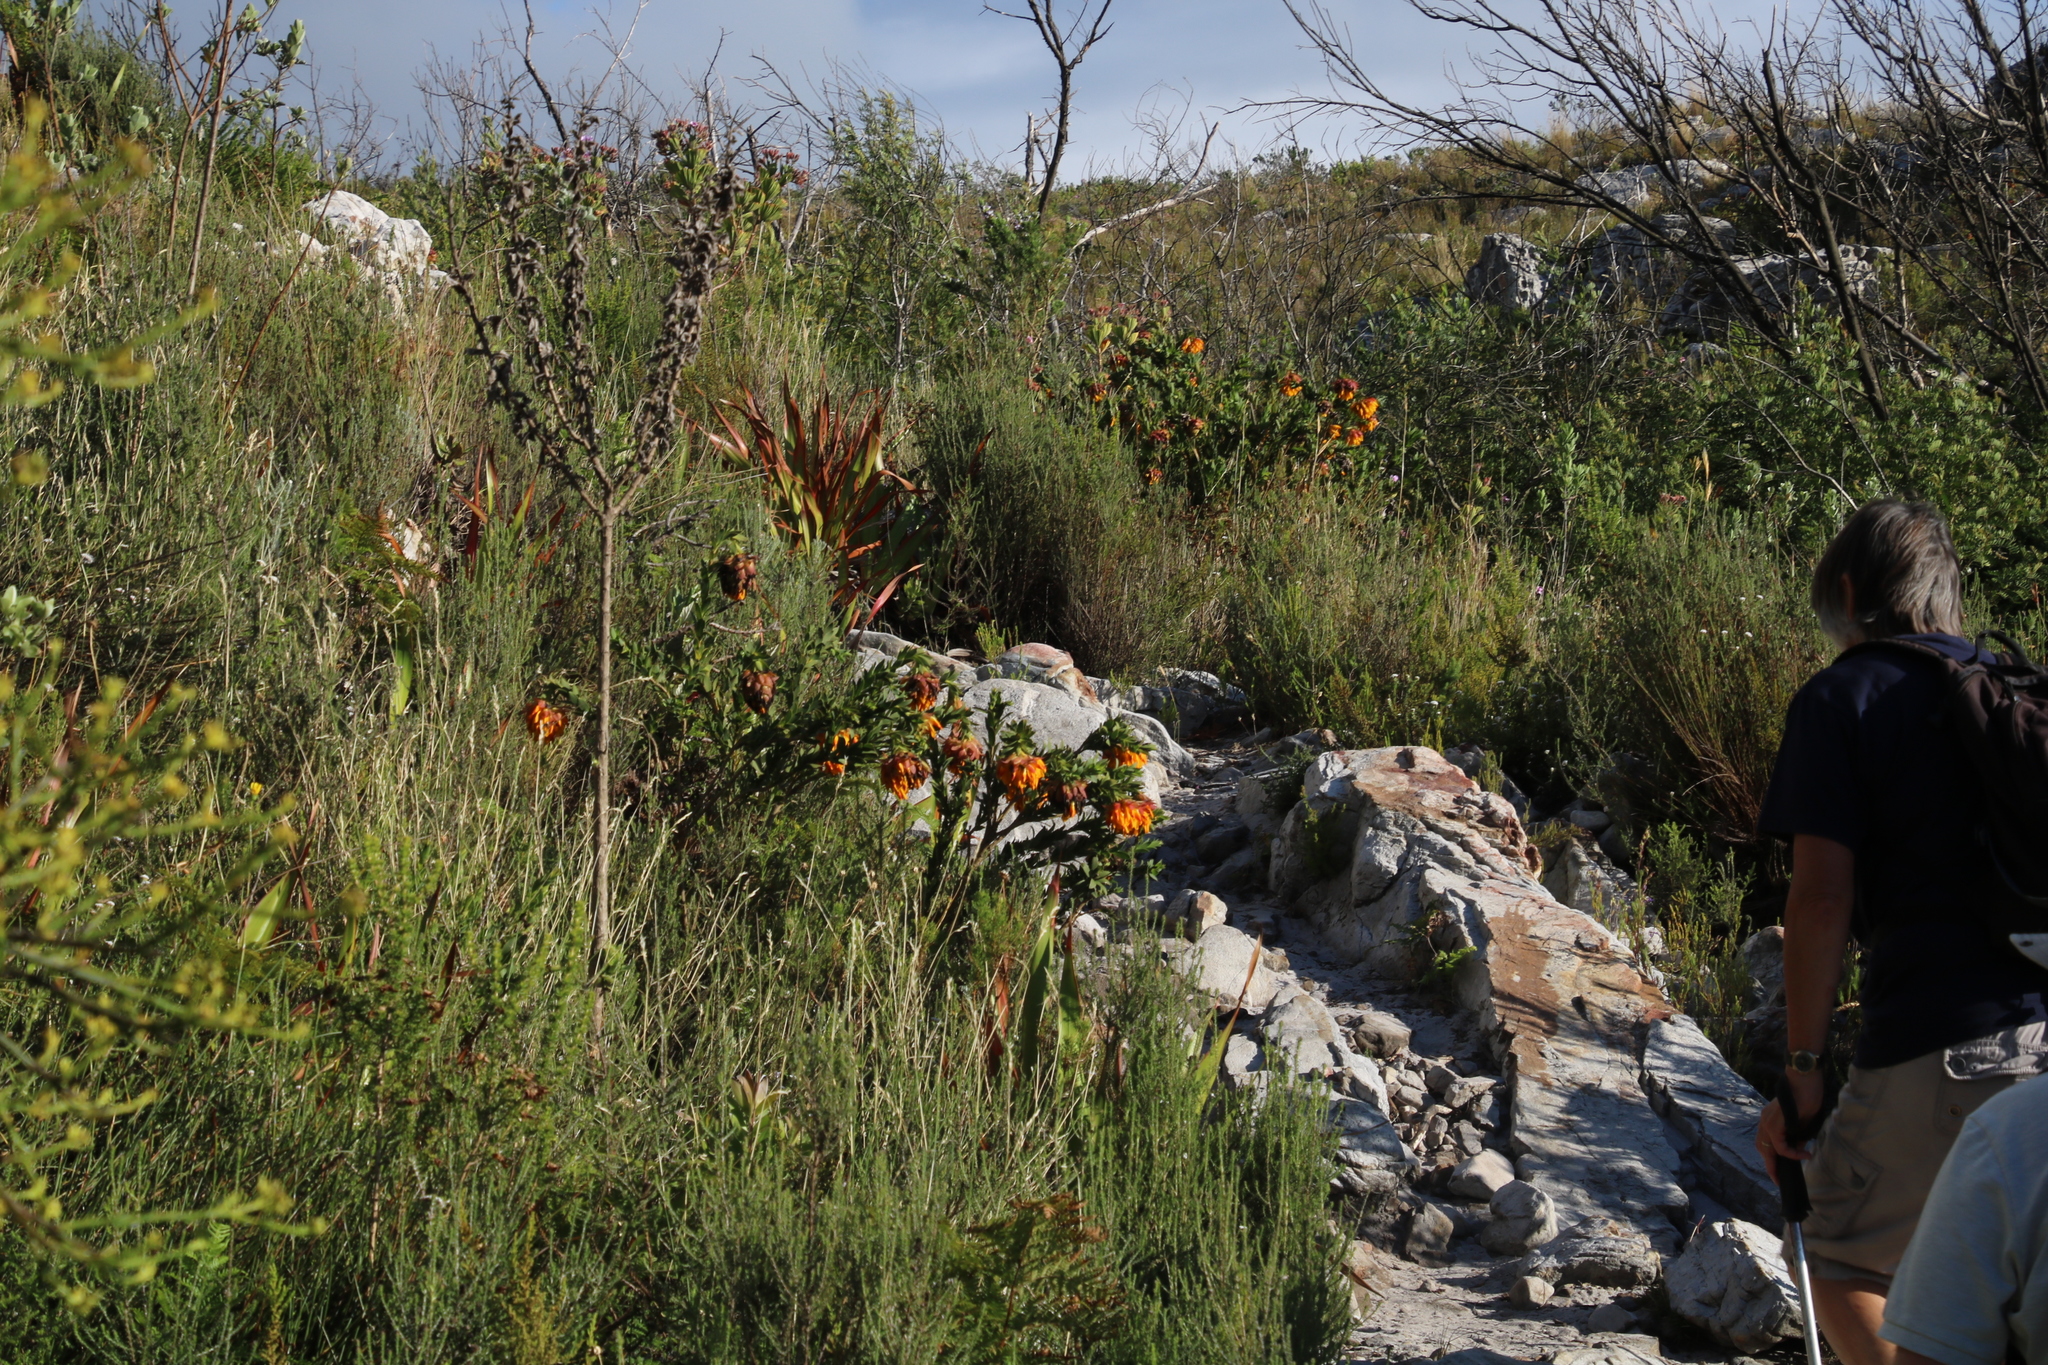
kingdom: Plantae
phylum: Tracheophyta
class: Magnoliopsida
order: Fabales
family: Fabaceae
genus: Liparia
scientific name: Liparia splendens
